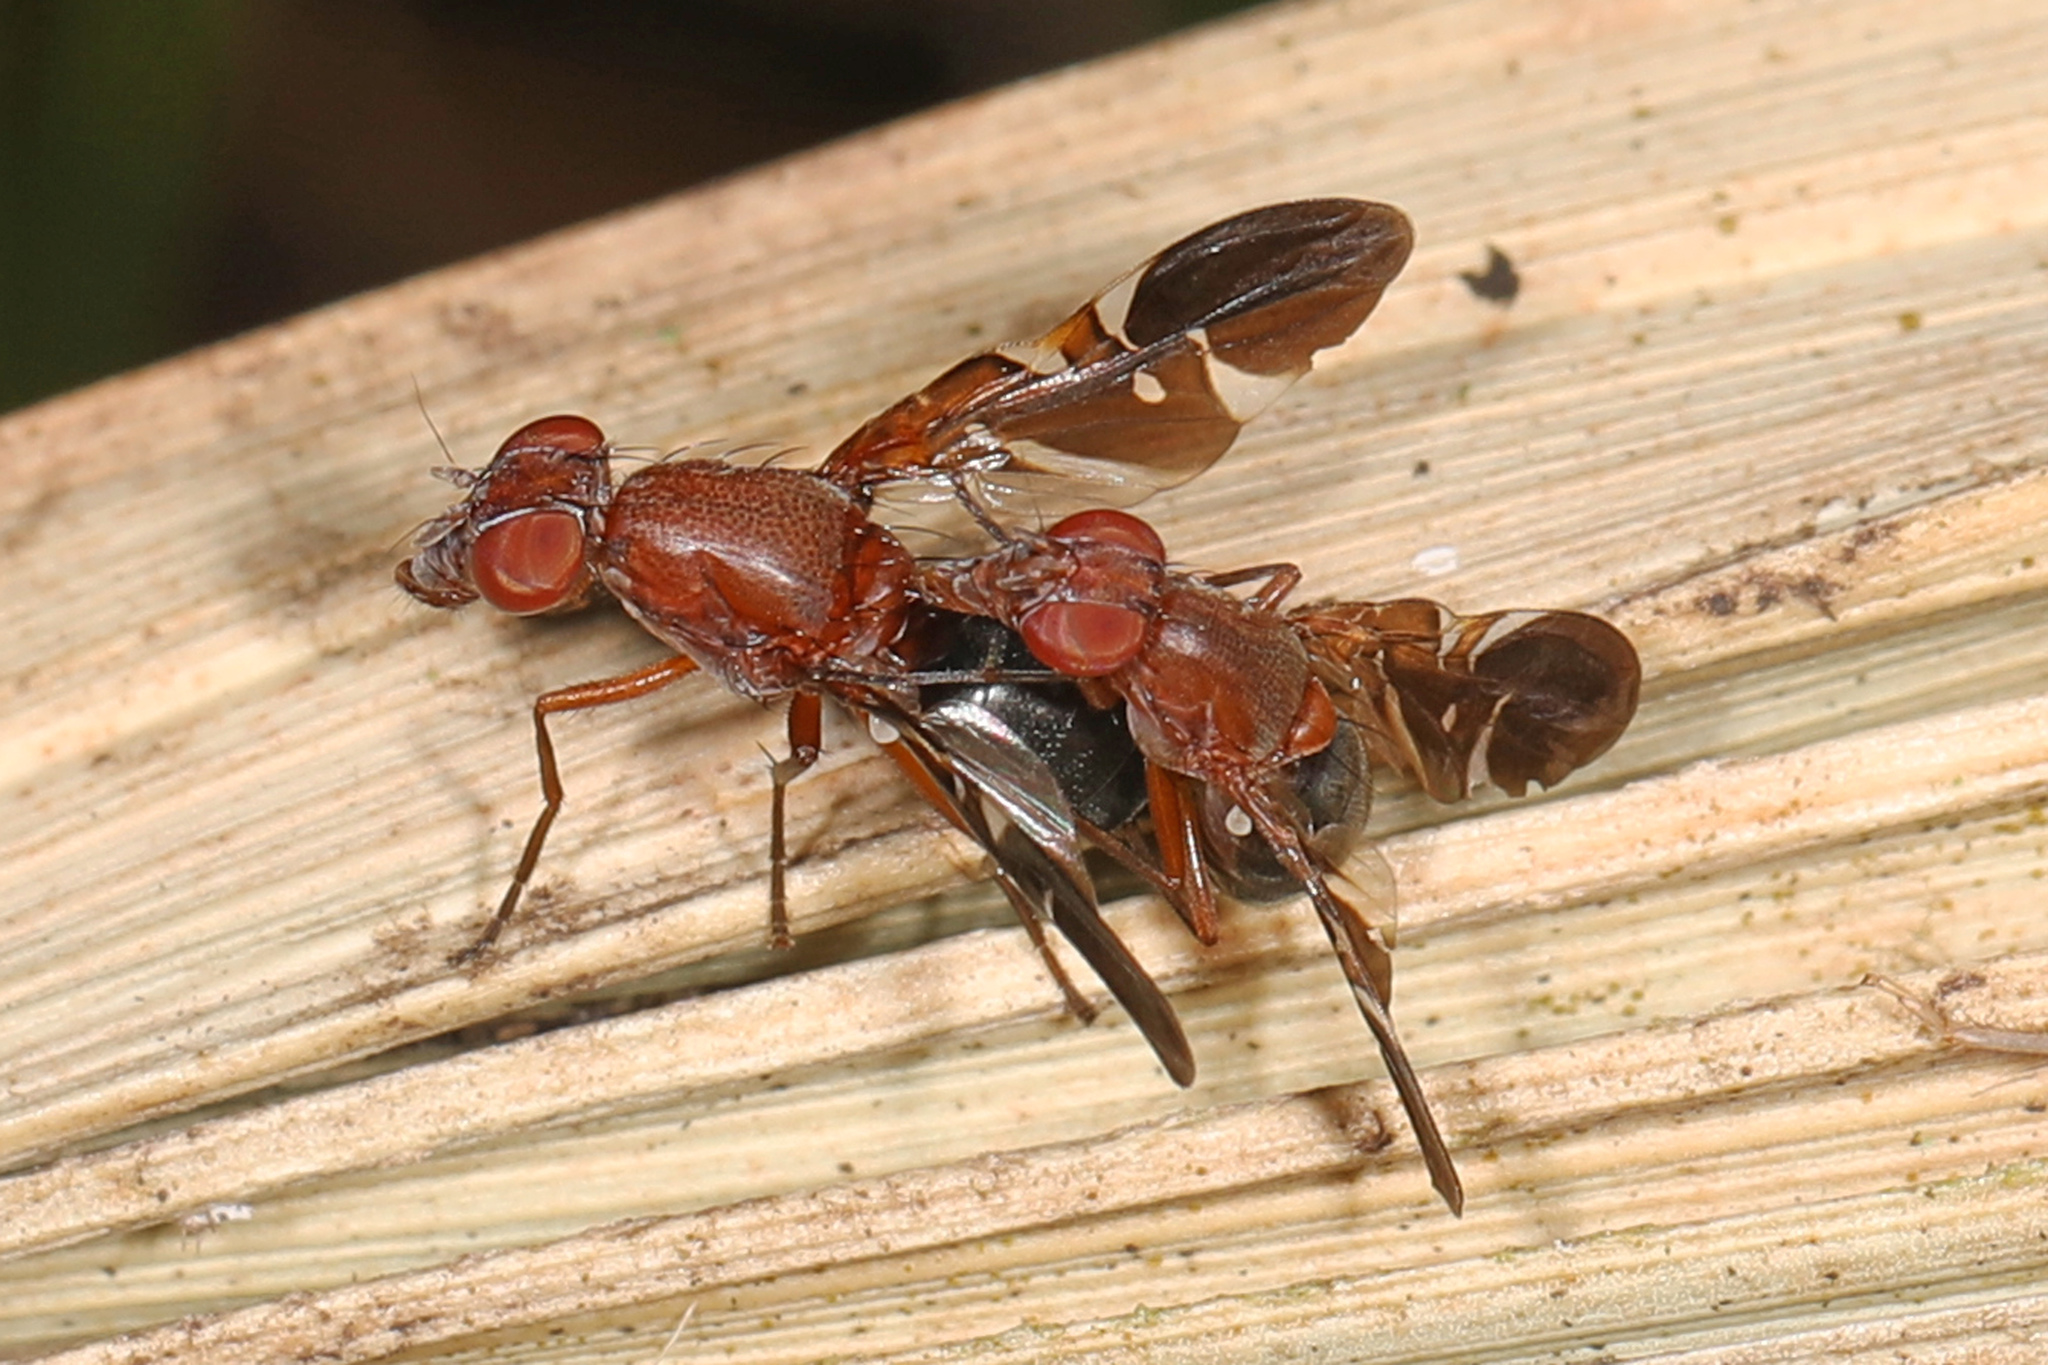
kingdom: Animalia
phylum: Arthropoda
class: Insecta
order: Diptera
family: Ulidiidae
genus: Delphinia
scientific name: Delphinia picta
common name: Common picture-winged fly
